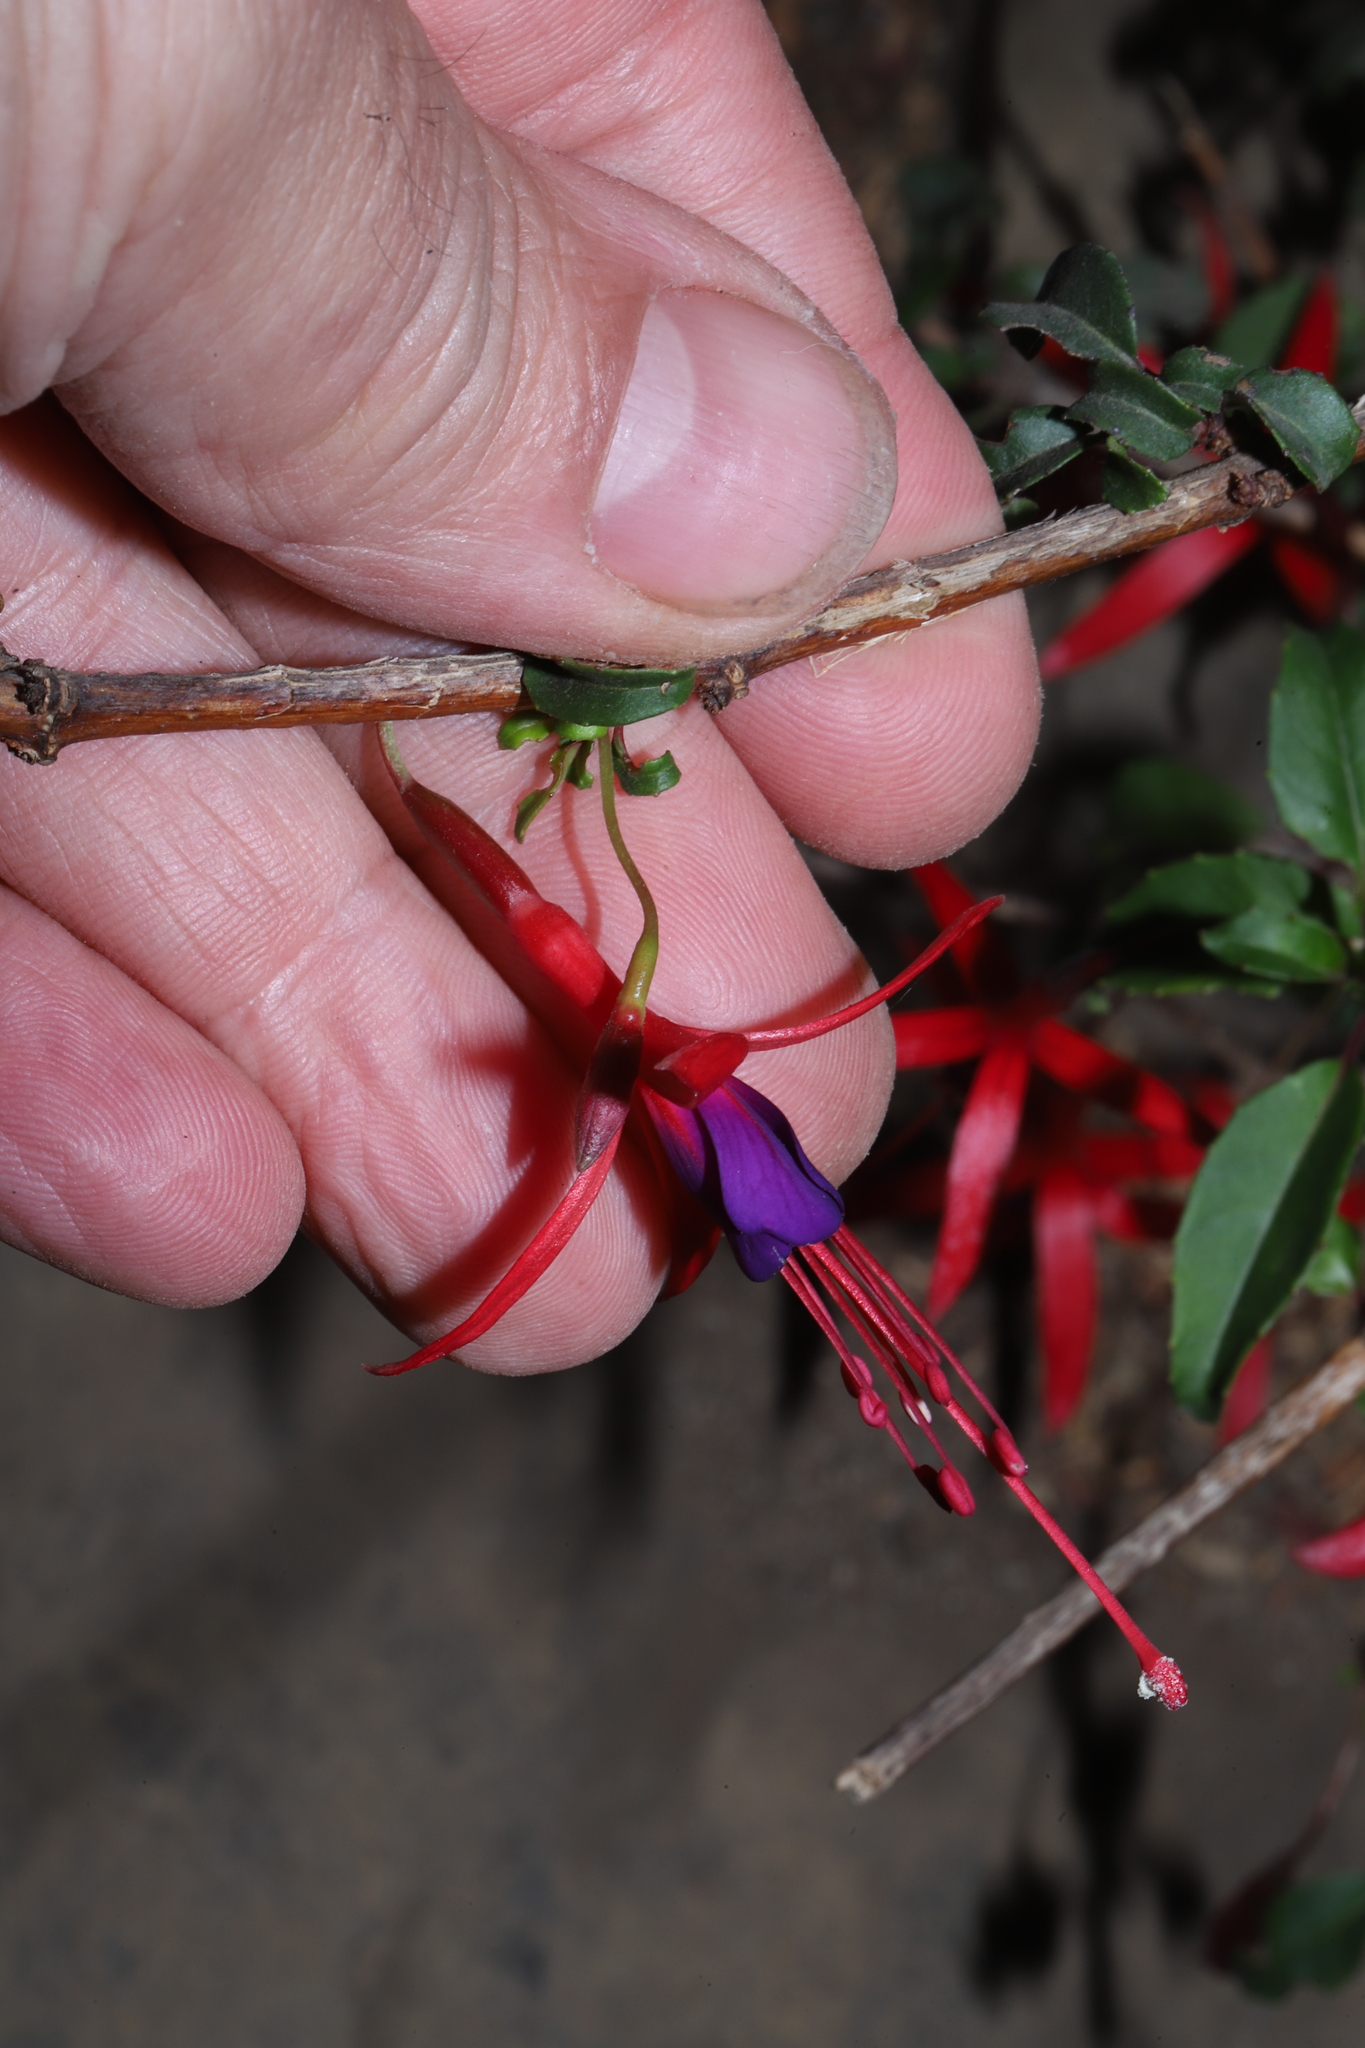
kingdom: Plantae
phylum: Tracheophyta
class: Magnoliopsida
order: Myrtales
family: Onagraceae
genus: Fuchsia
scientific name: Fuchsia magellanica
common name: Hardy fuchsia
